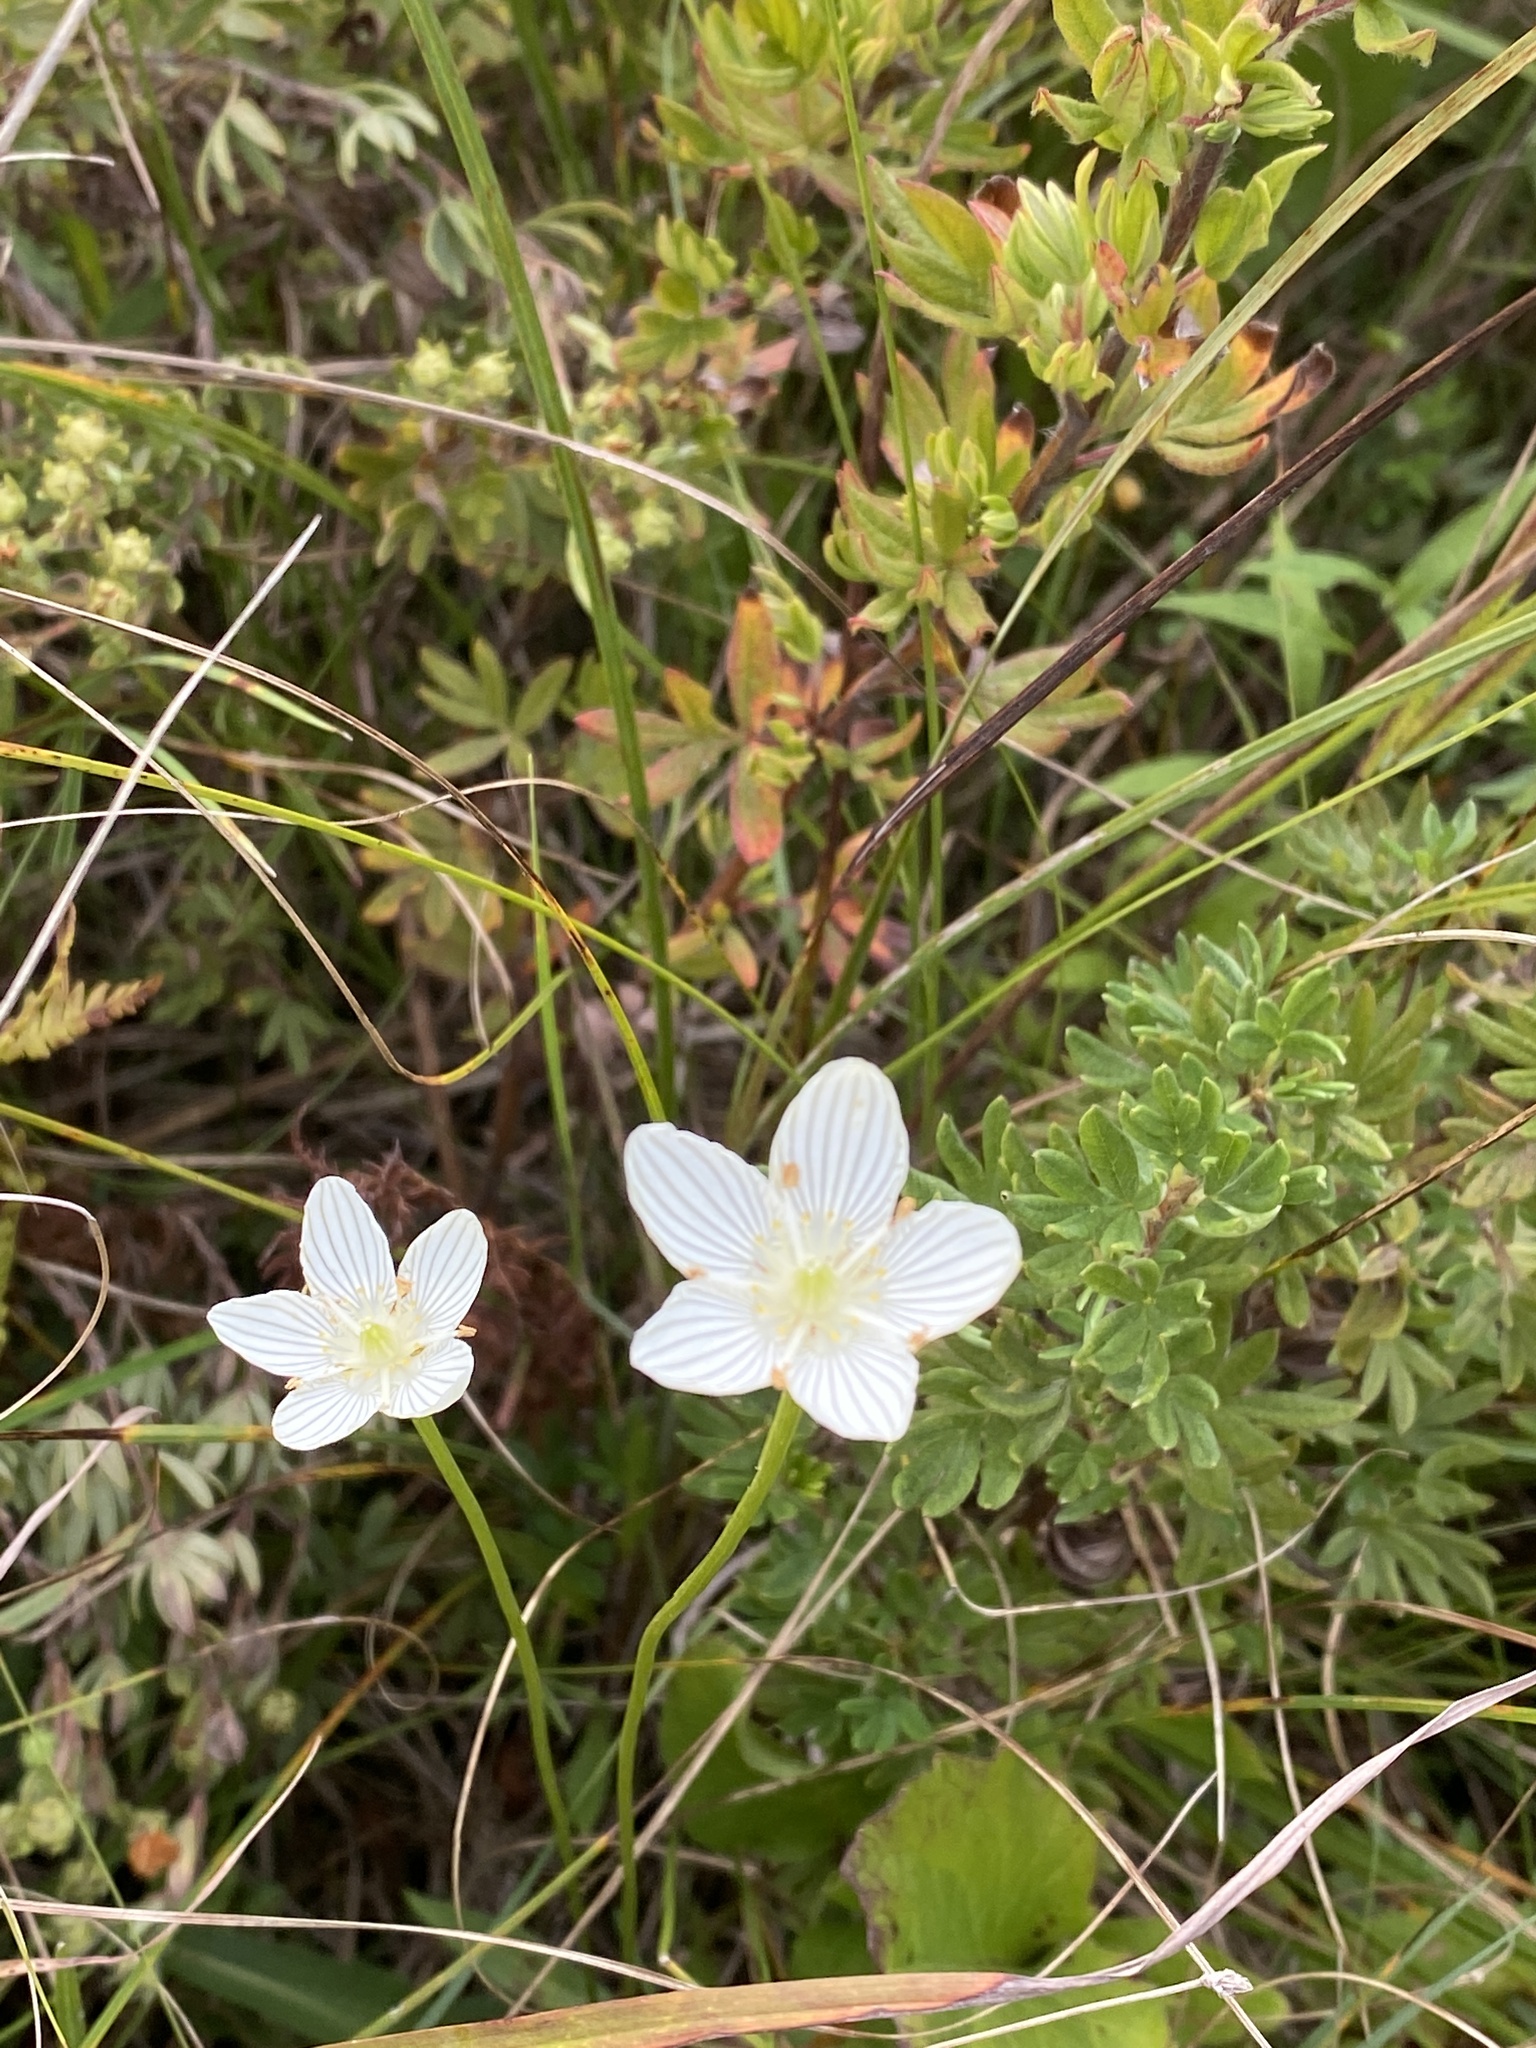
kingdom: Plantae
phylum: Tracheophyta
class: Magnoliopsida
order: Celastrales
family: Parnassiaceae
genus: Parnassia
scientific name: Parnassia glauca
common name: American grass-of-parnassus
